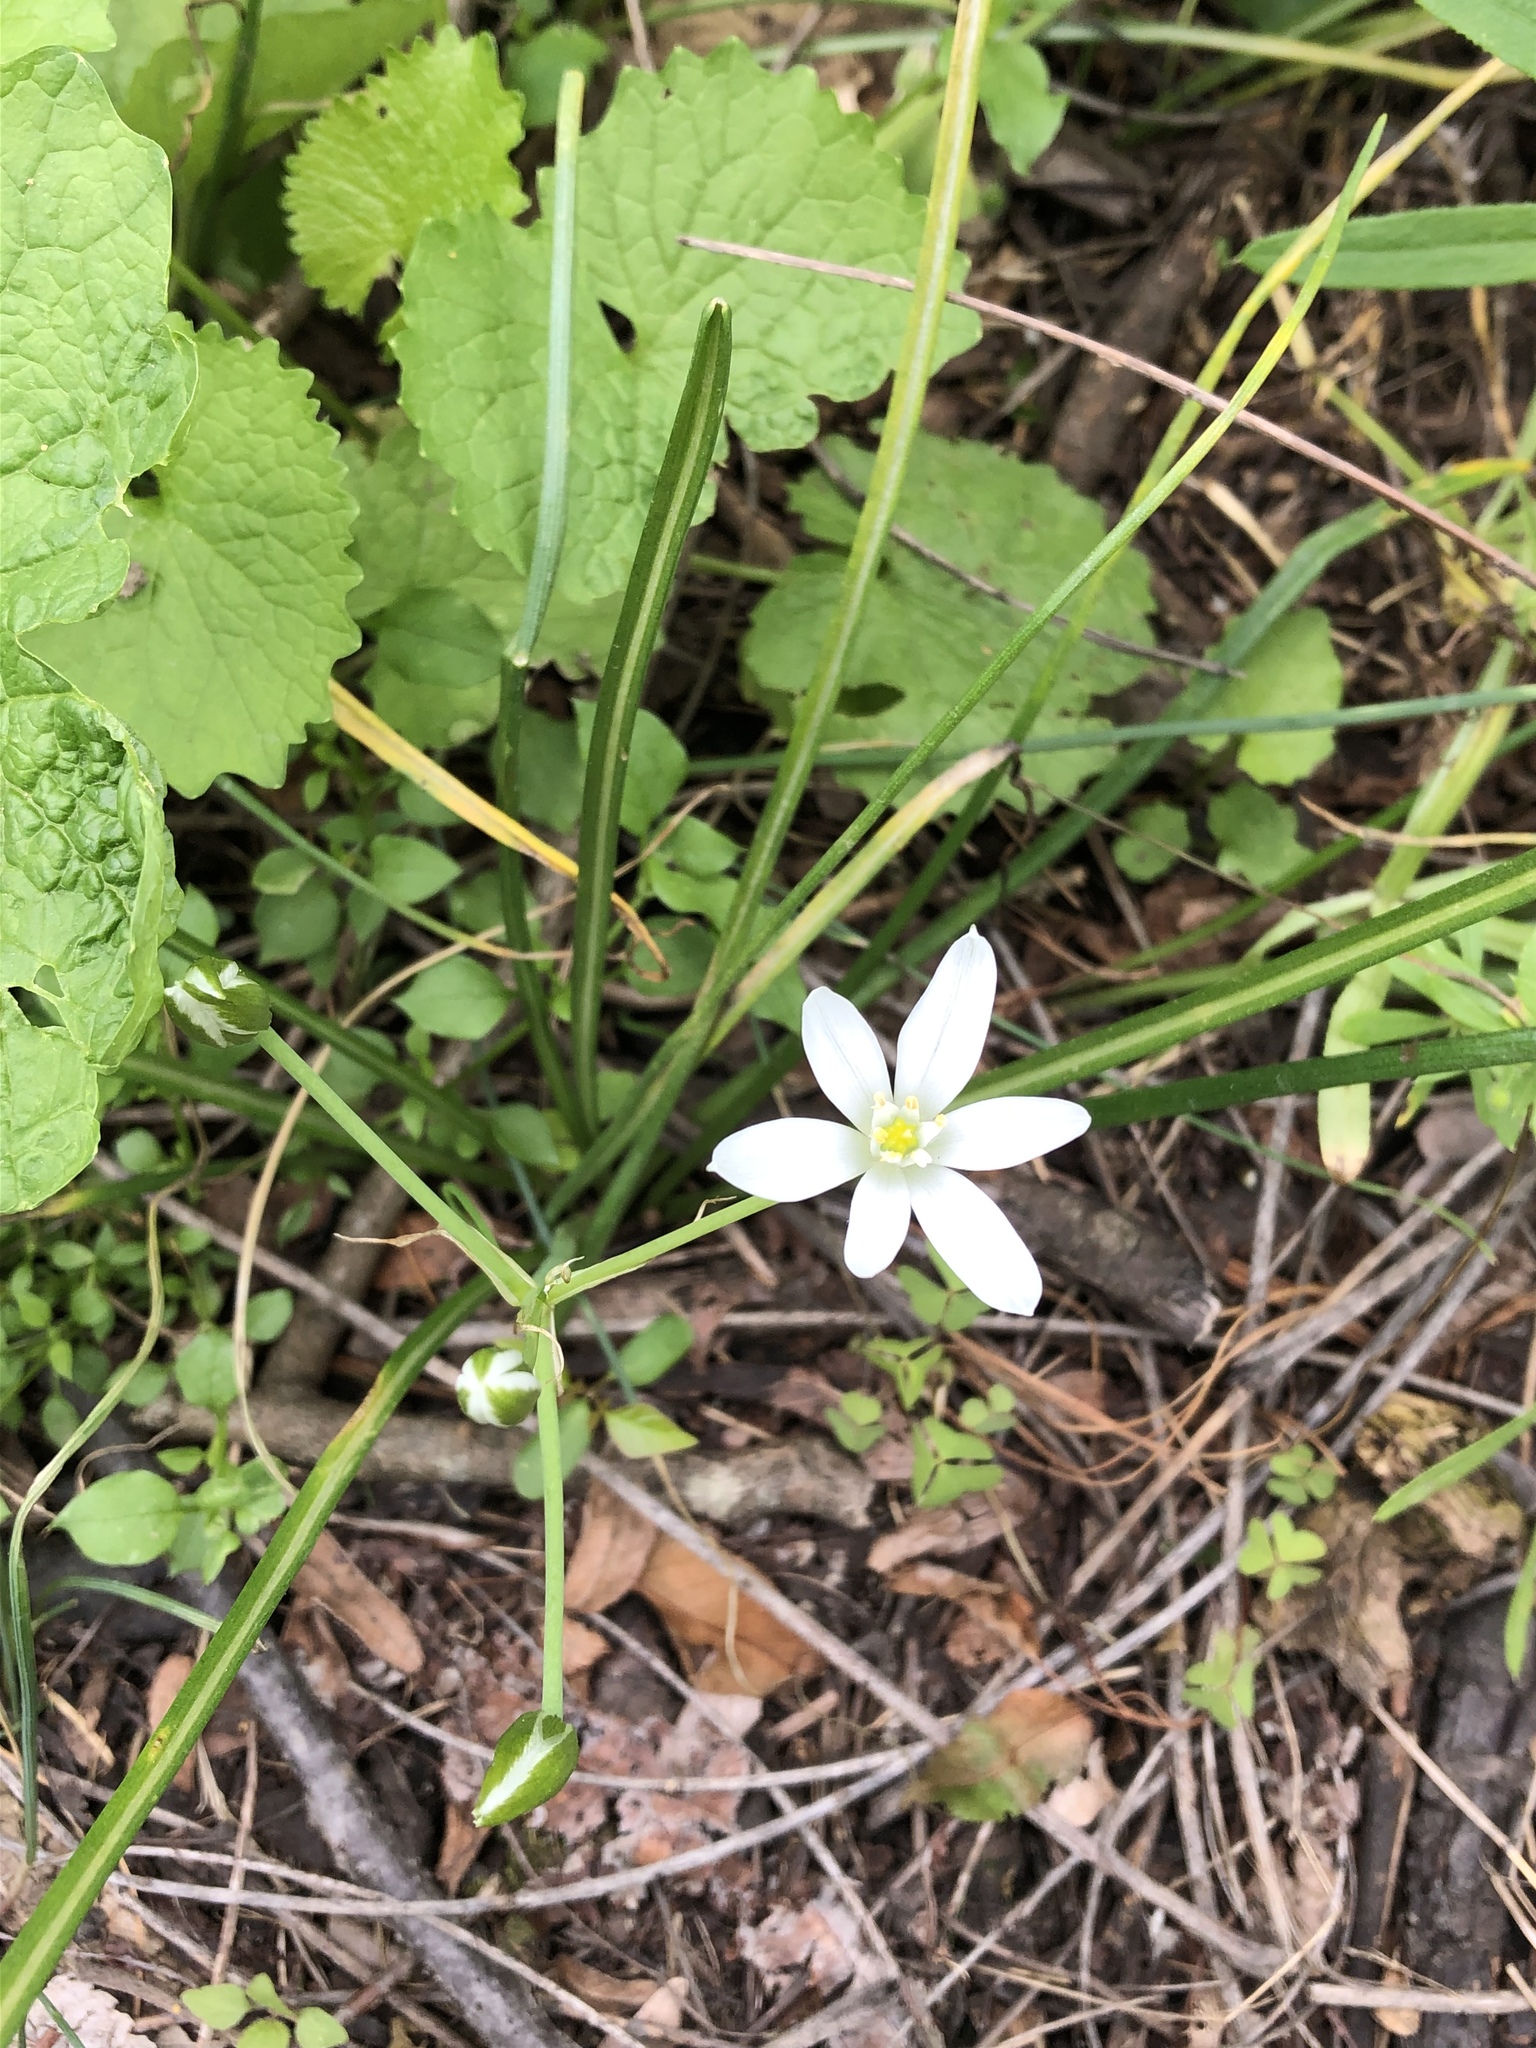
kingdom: Plantae
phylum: Tracheophyta
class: Liliopsida
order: Asparagales
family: Asparagaceae
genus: Ornithogalum
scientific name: Ornithogalum umbellatum
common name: Garden star-of-bethlehem
